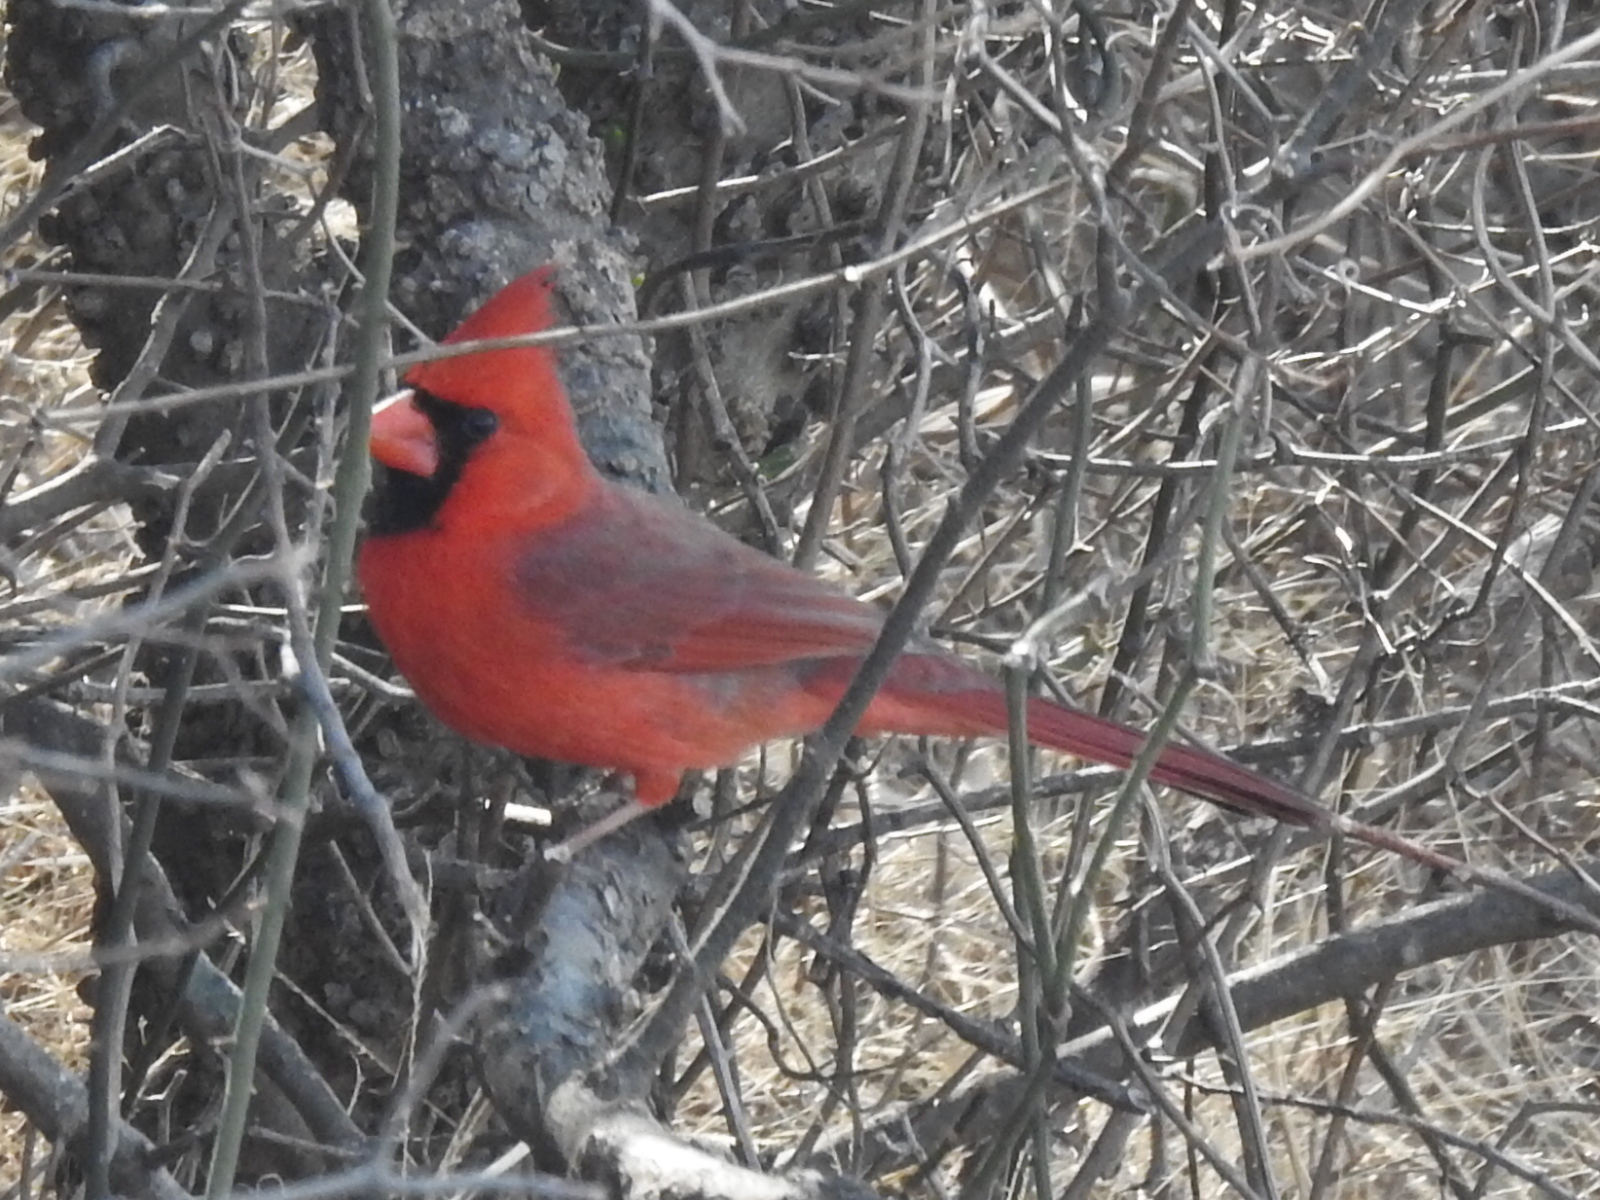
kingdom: Animalia
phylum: Chordata
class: Aves
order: Passeriformes
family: Cardinalidae
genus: Cardinalis
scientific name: Cardinalis cardinalis
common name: Northern cardinal
